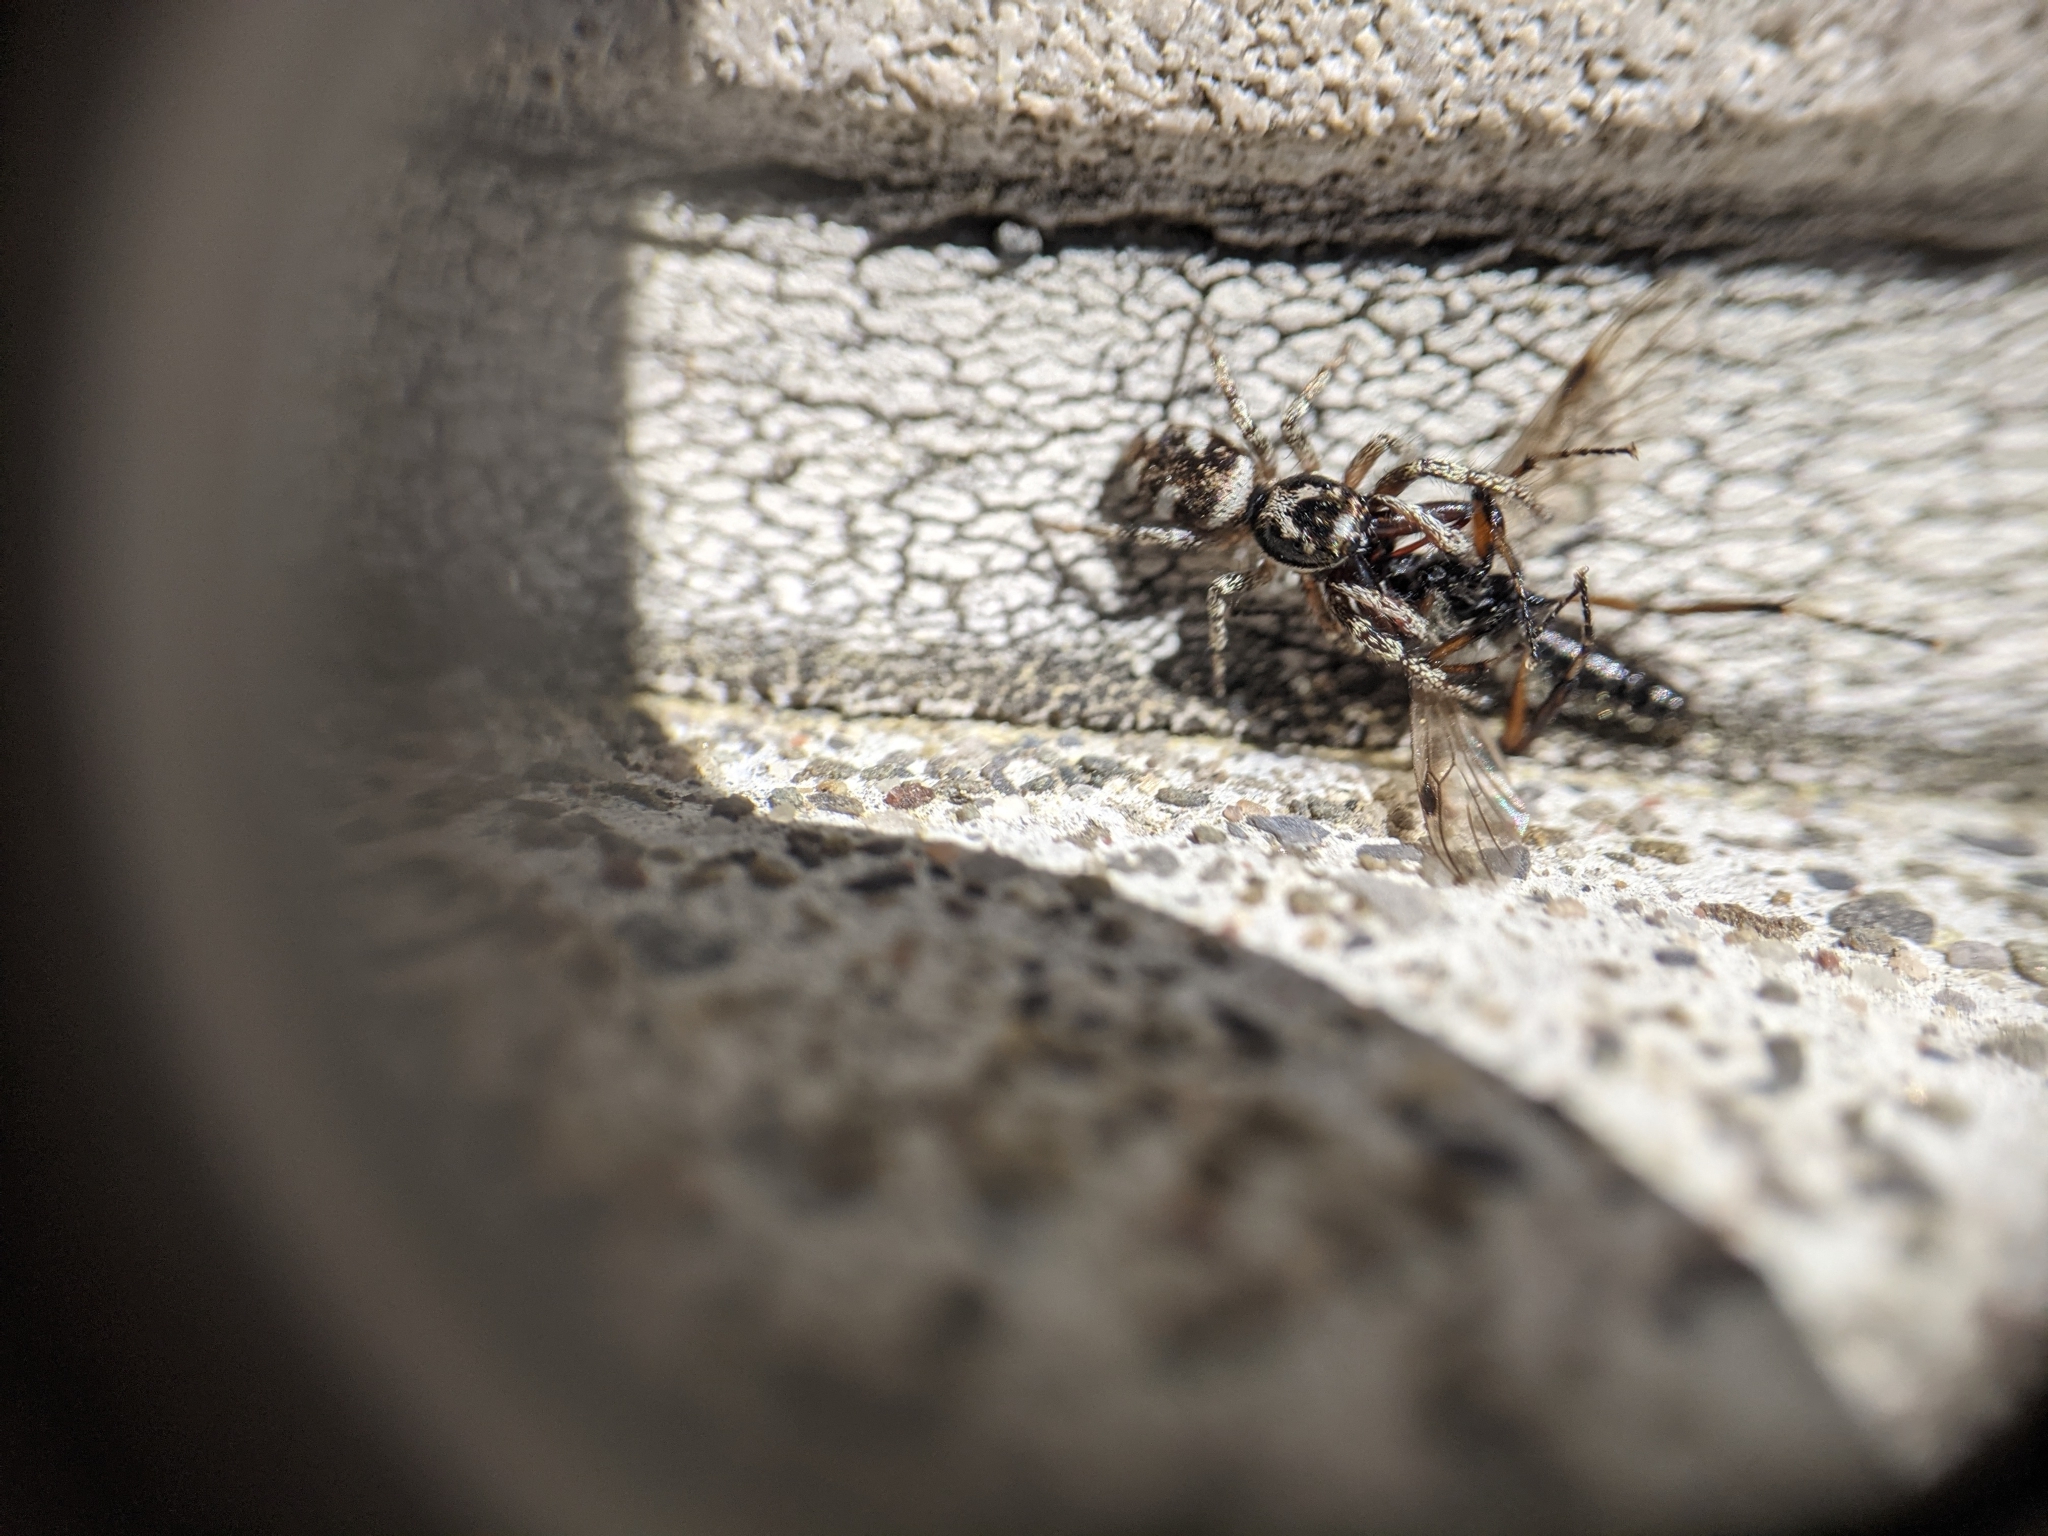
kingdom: Animalia
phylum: Arthropoda
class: Arachnida
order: Araneae
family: Salticidae
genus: Salticus
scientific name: Salticus scenicus
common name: Zebra jumper
